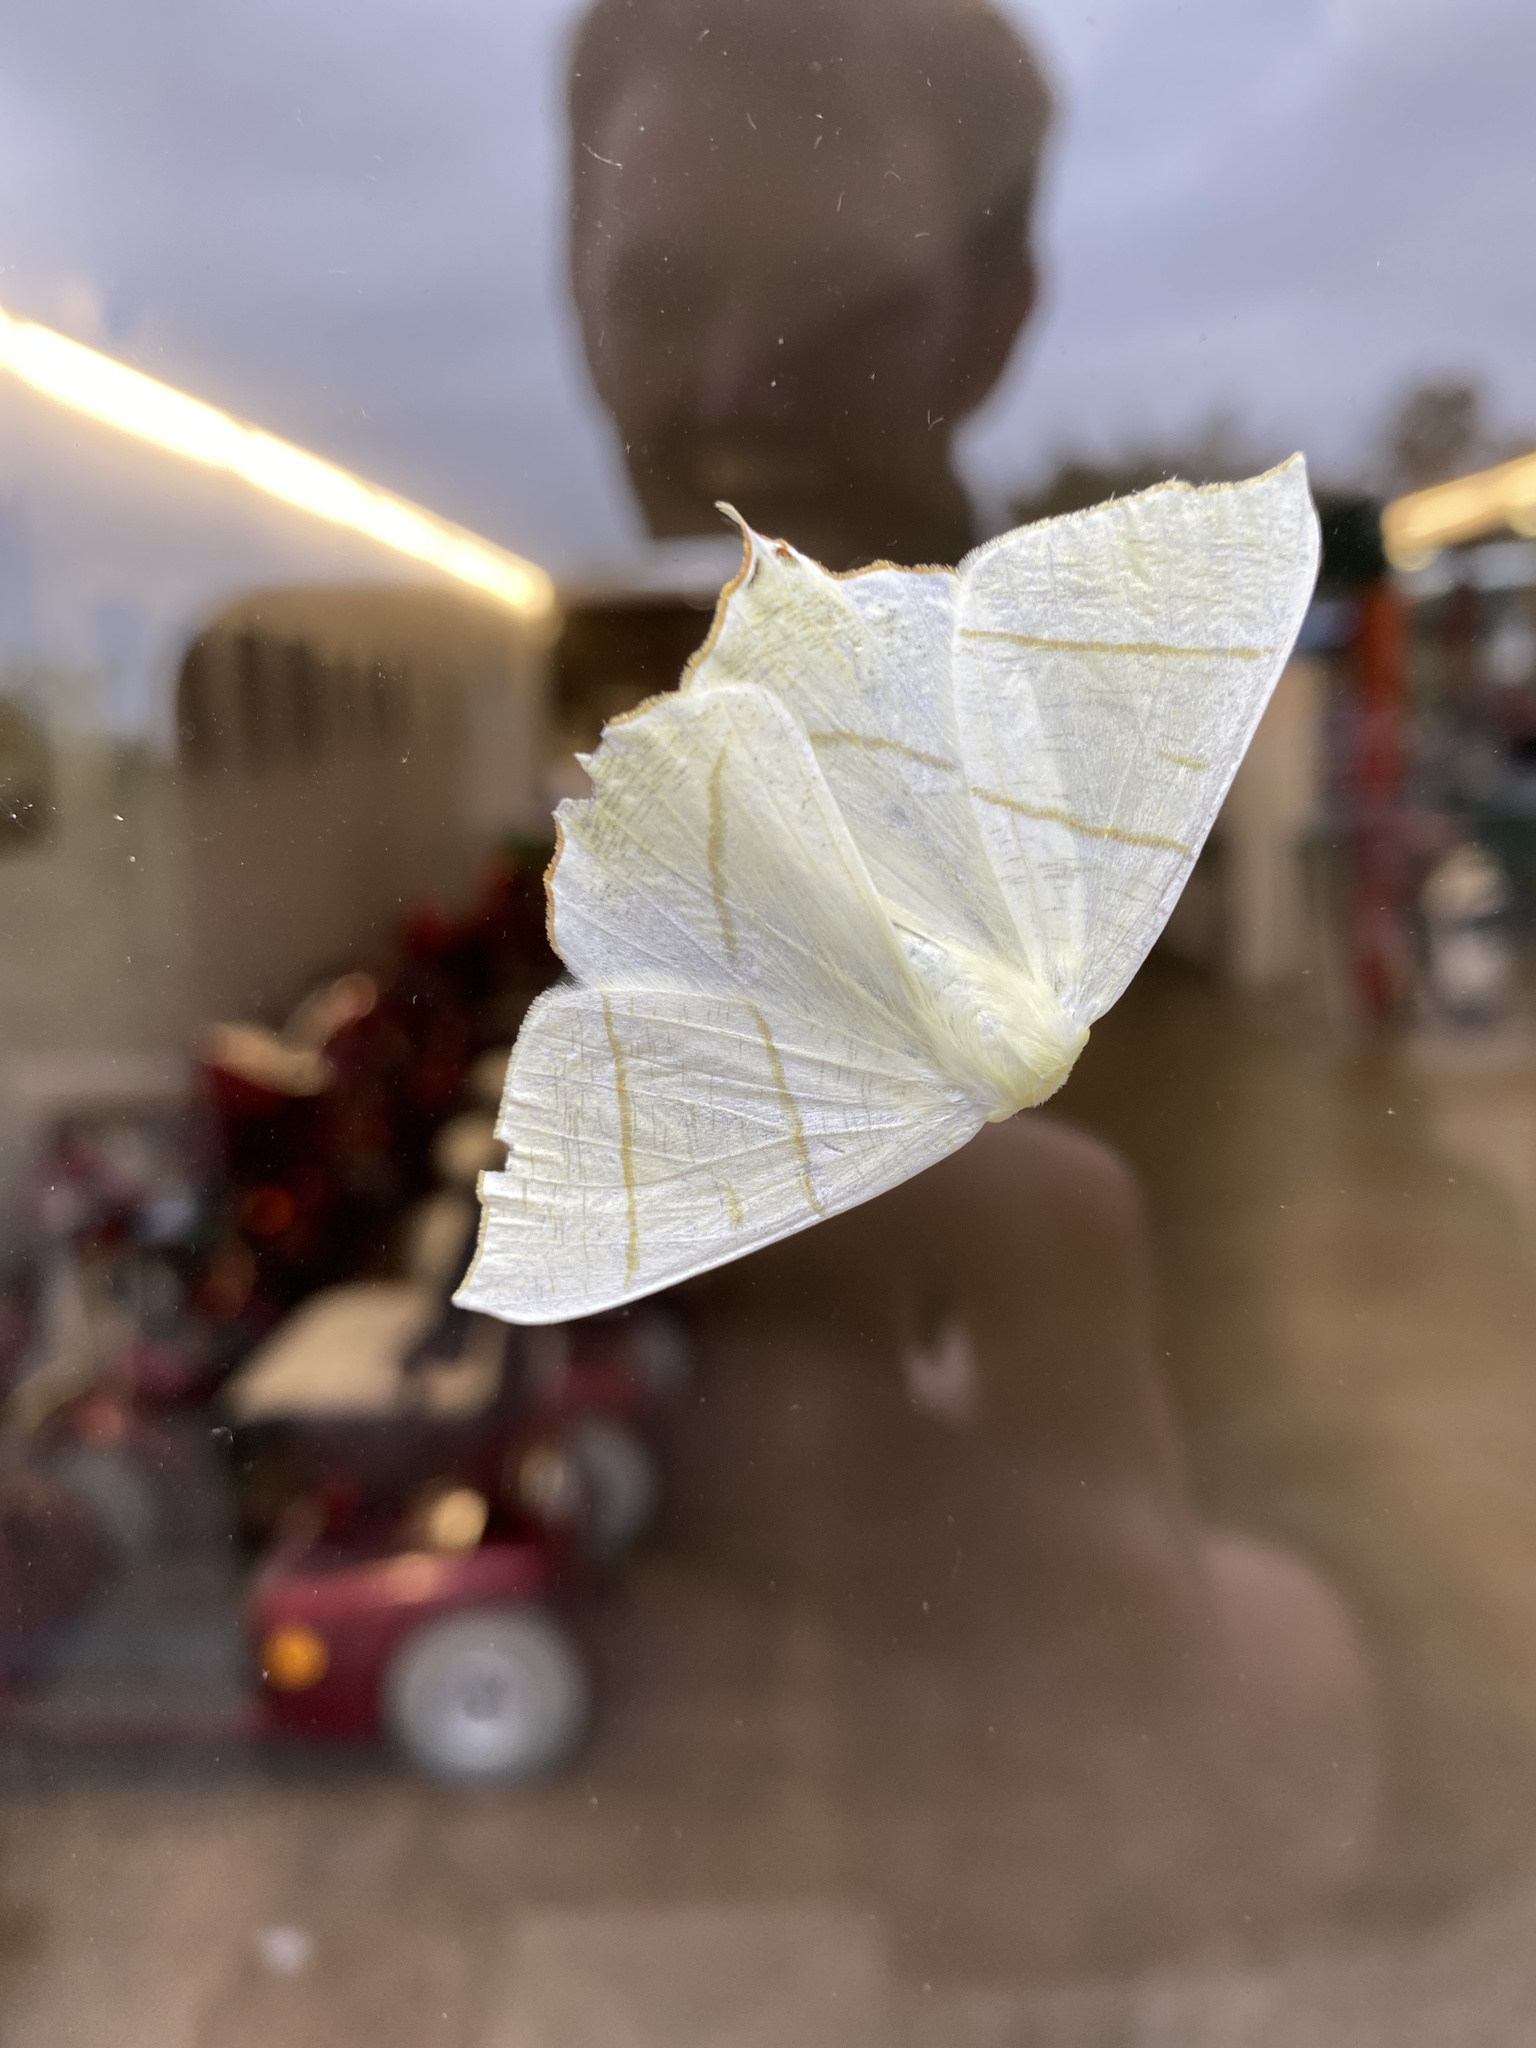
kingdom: Animalia
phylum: Arthropoda
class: Insecta
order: Lepidoptera
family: Geometridae
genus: Ourapteryx
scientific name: Ourapteryx sambucaria
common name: Swallow-tailed moth
